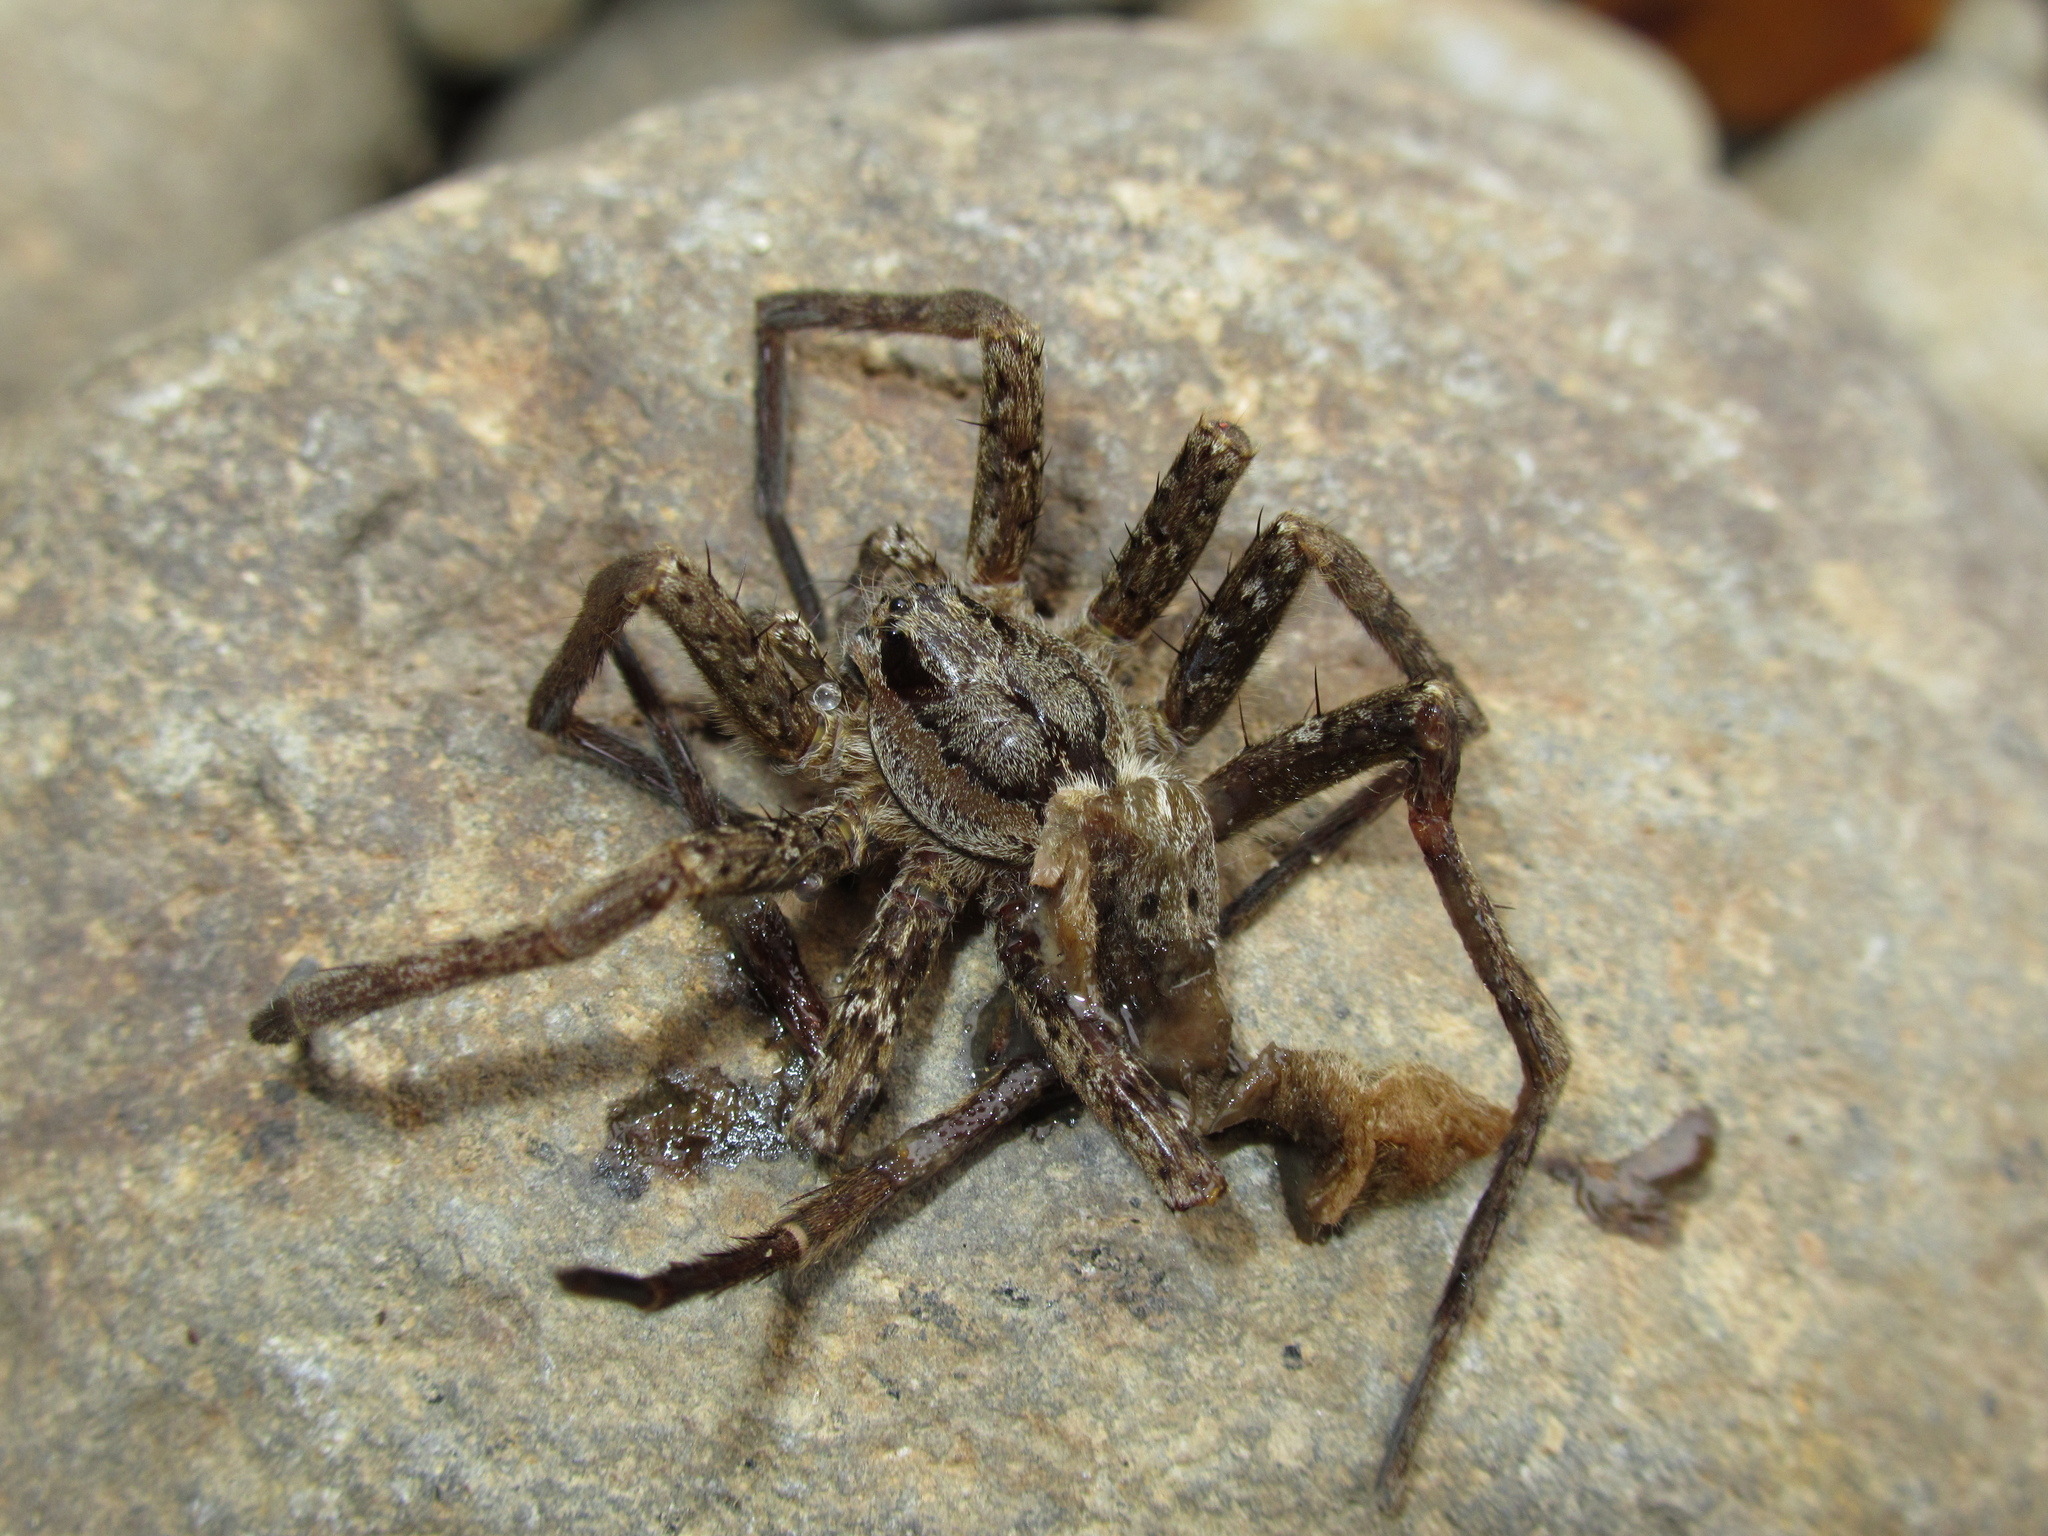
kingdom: Animalia
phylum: Arthropoda
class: Arachnida
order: Araneae
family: Pisauridae
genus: Dolomedes
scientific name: Dolomedes dondalei
